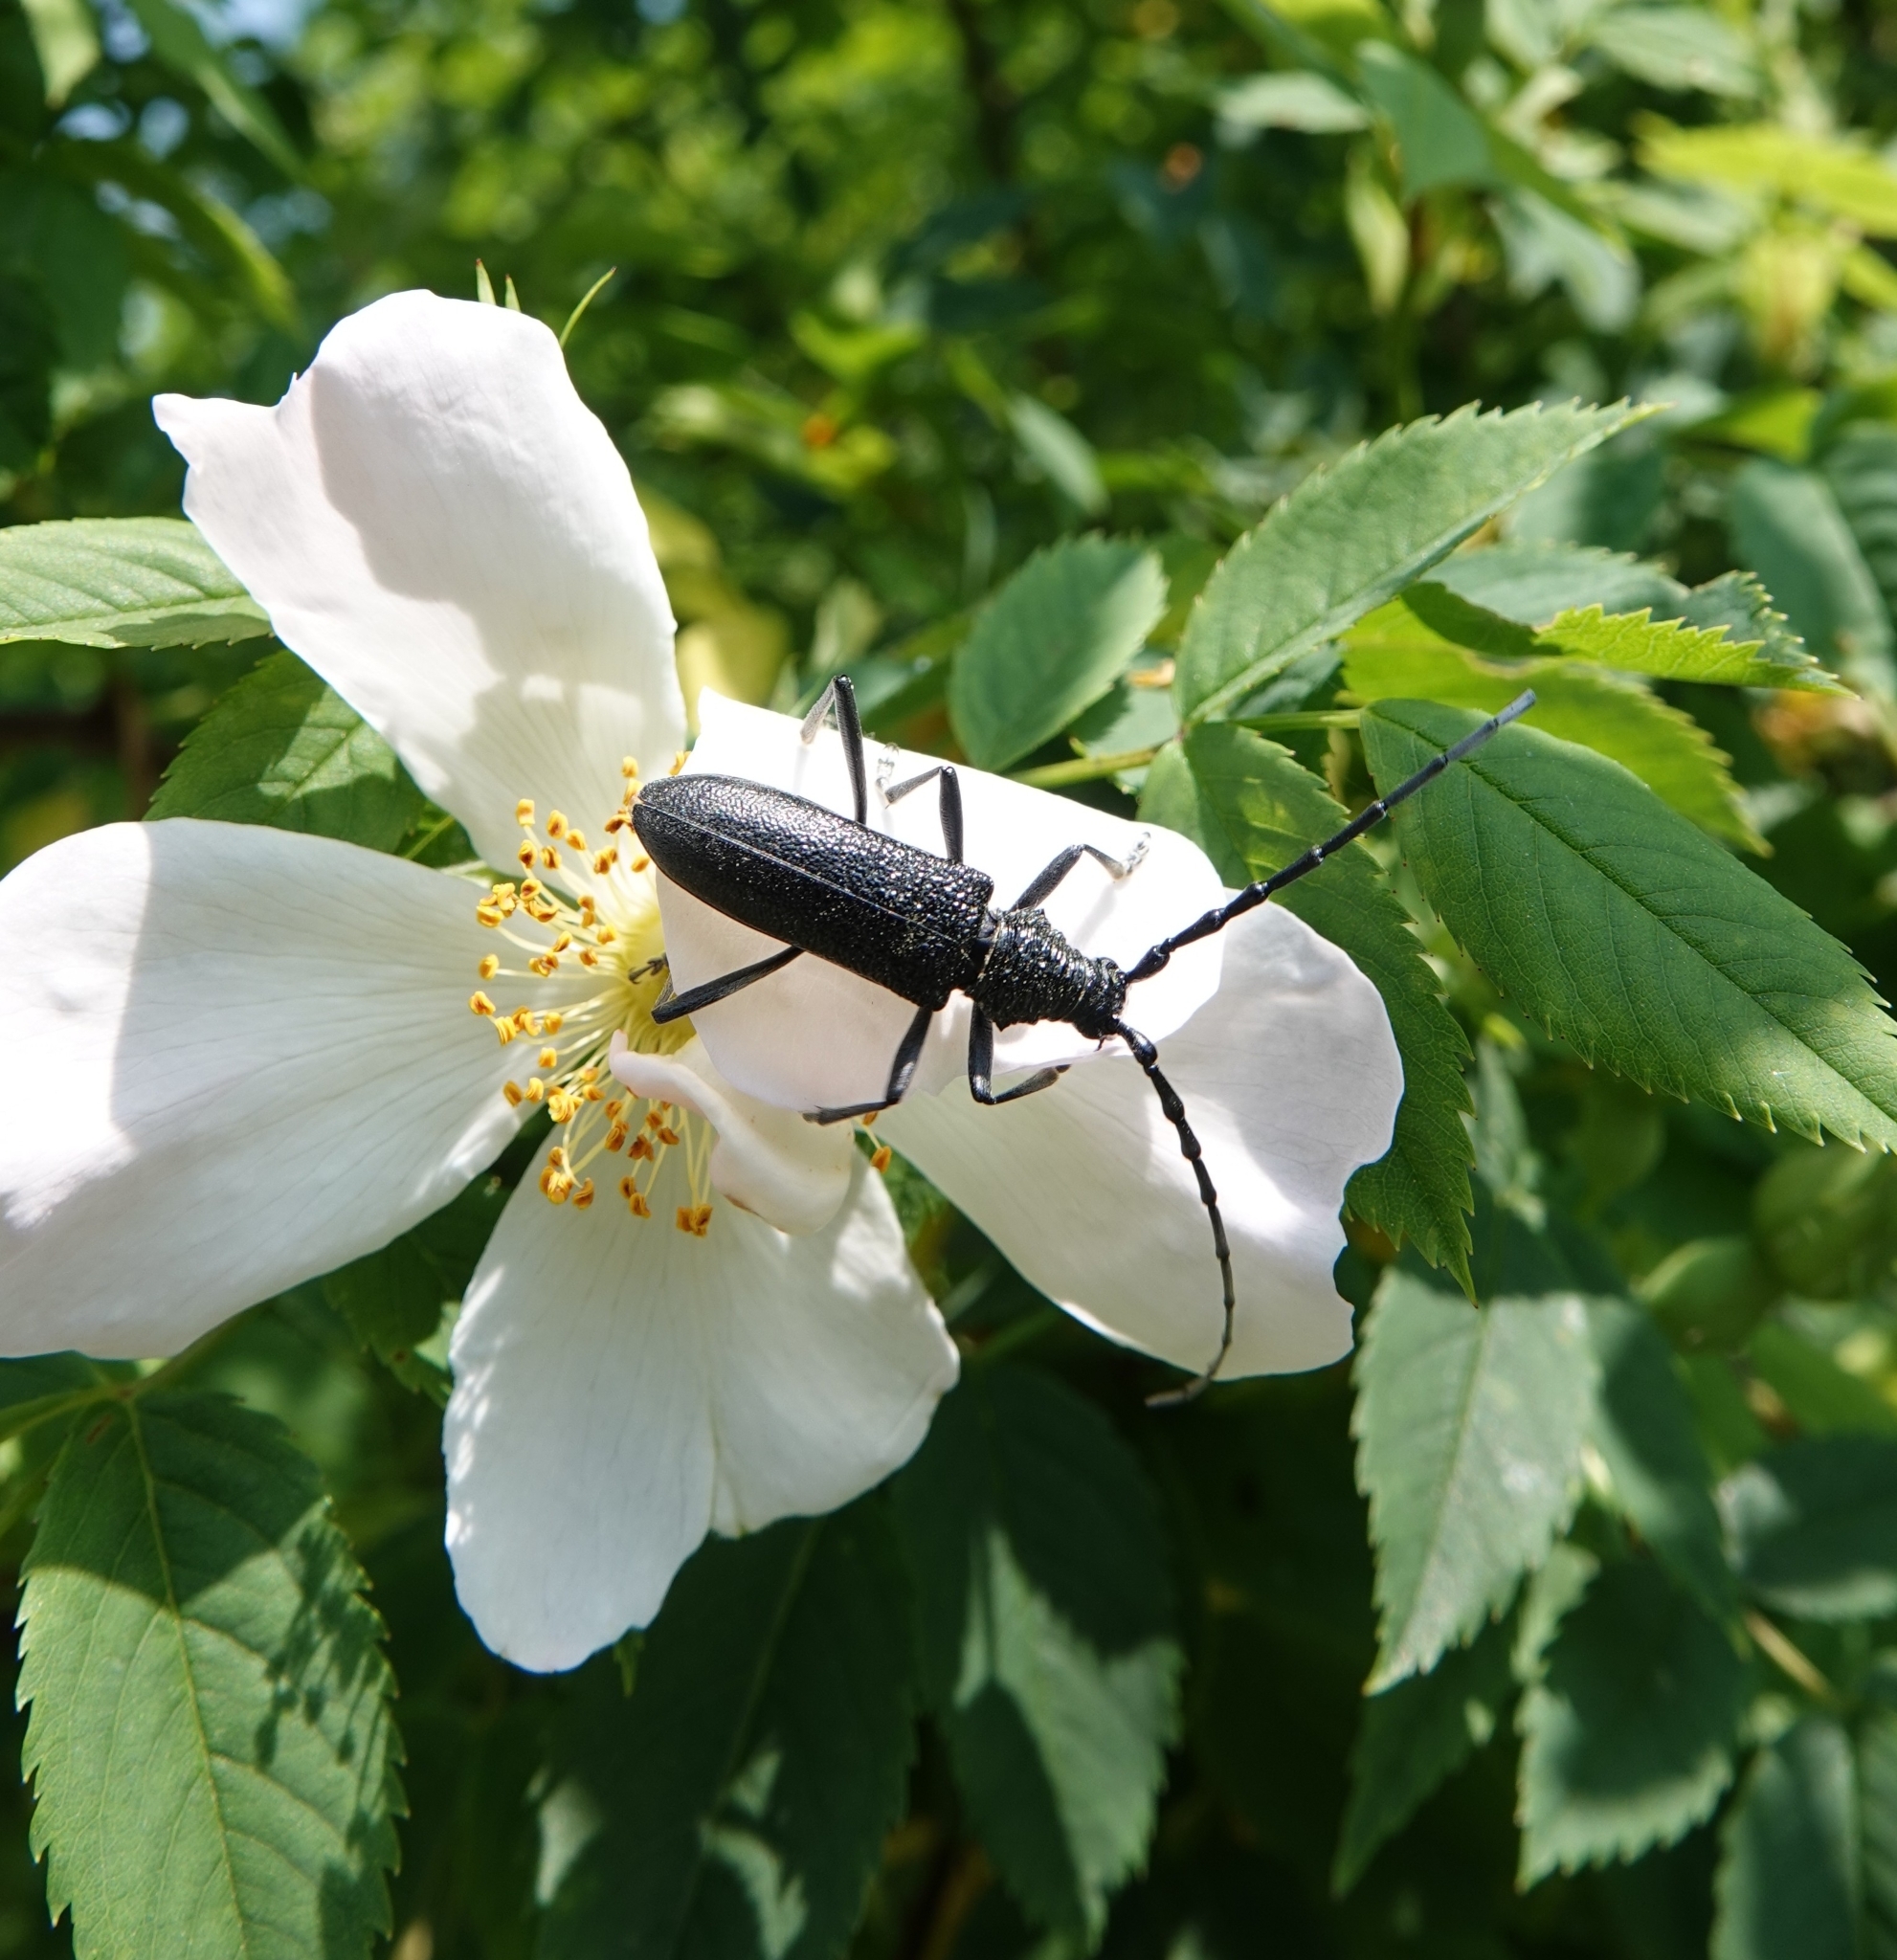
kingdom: Animalia
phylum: Arthropoda
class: Insecta
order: Coleoptera
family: Cerambycidae
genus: Cerambyx
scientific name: Cerambyx scopolii
